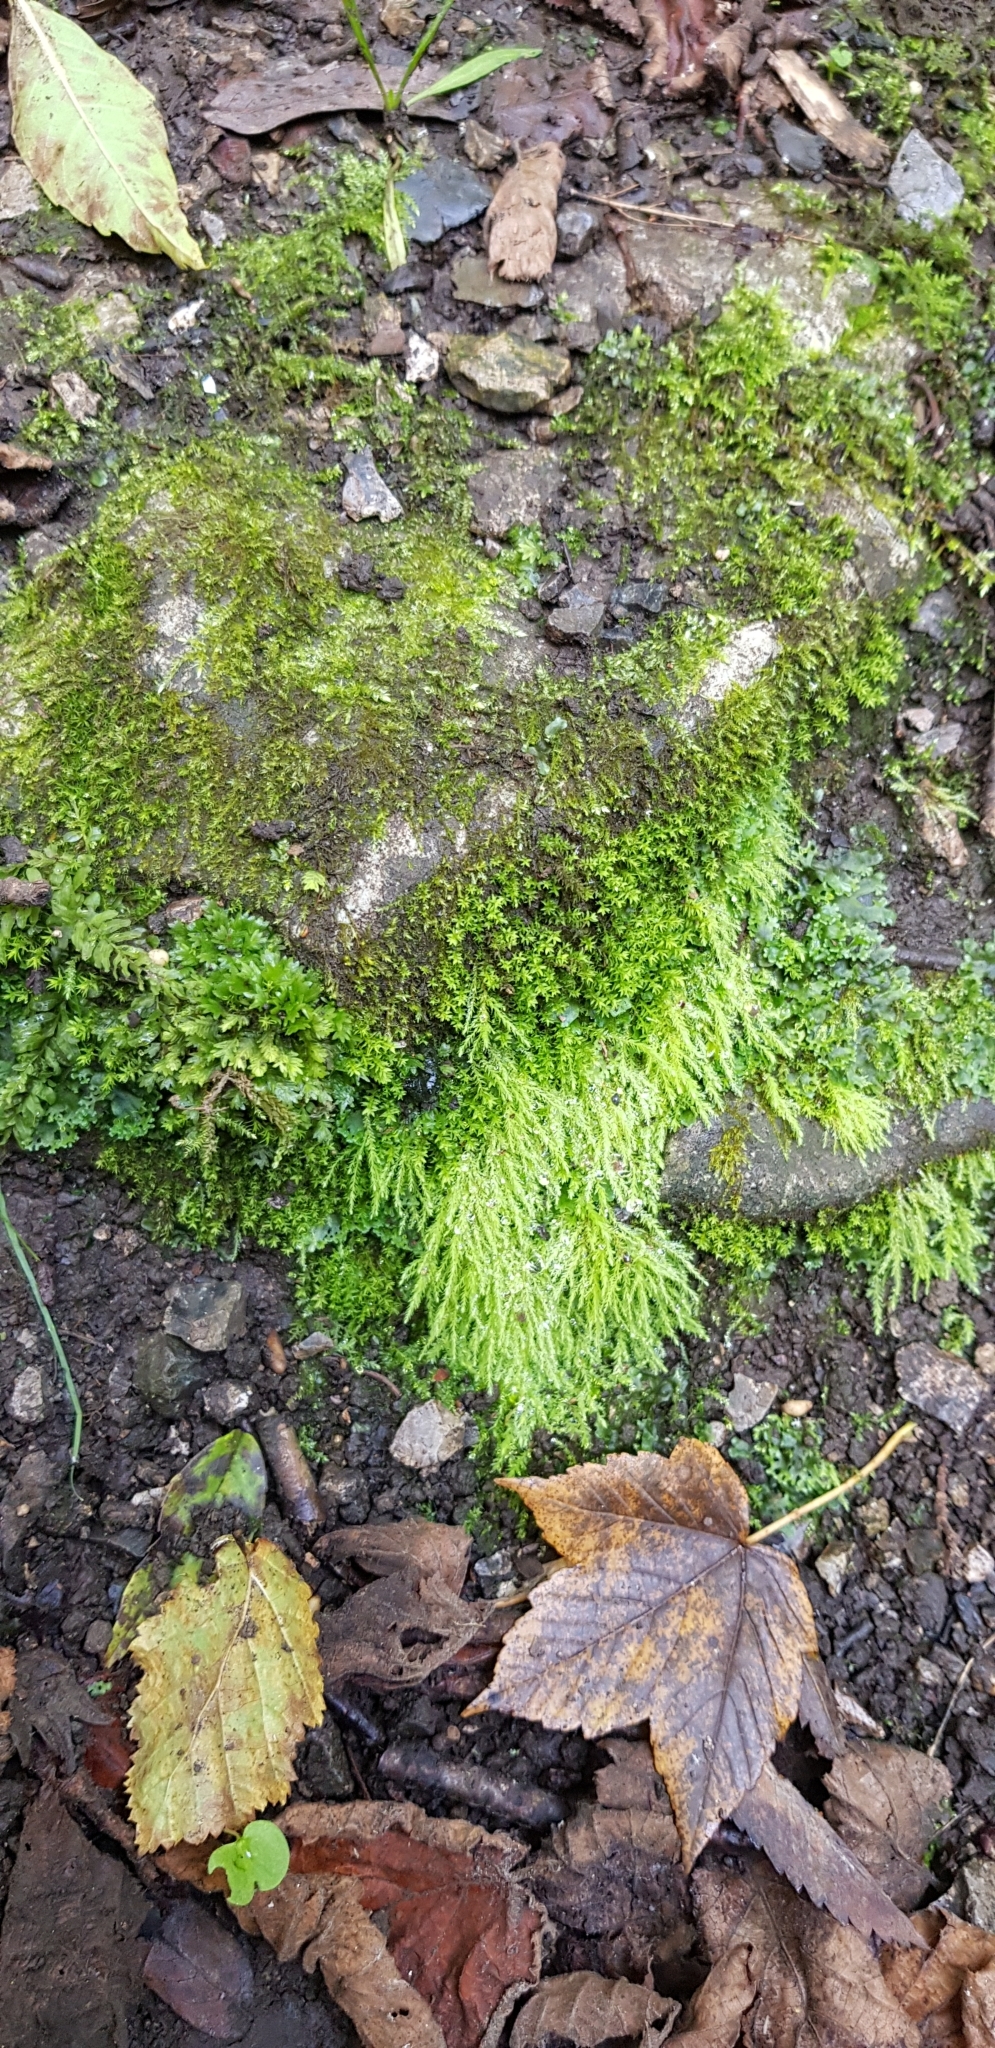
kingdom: Plantae
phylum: Bryophyta
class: Bryopsida
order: Bryales
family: Mniaceae
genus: Pohlia
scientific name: Pohlia wahlenbergii
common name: Wahlenberg's nodding moss
